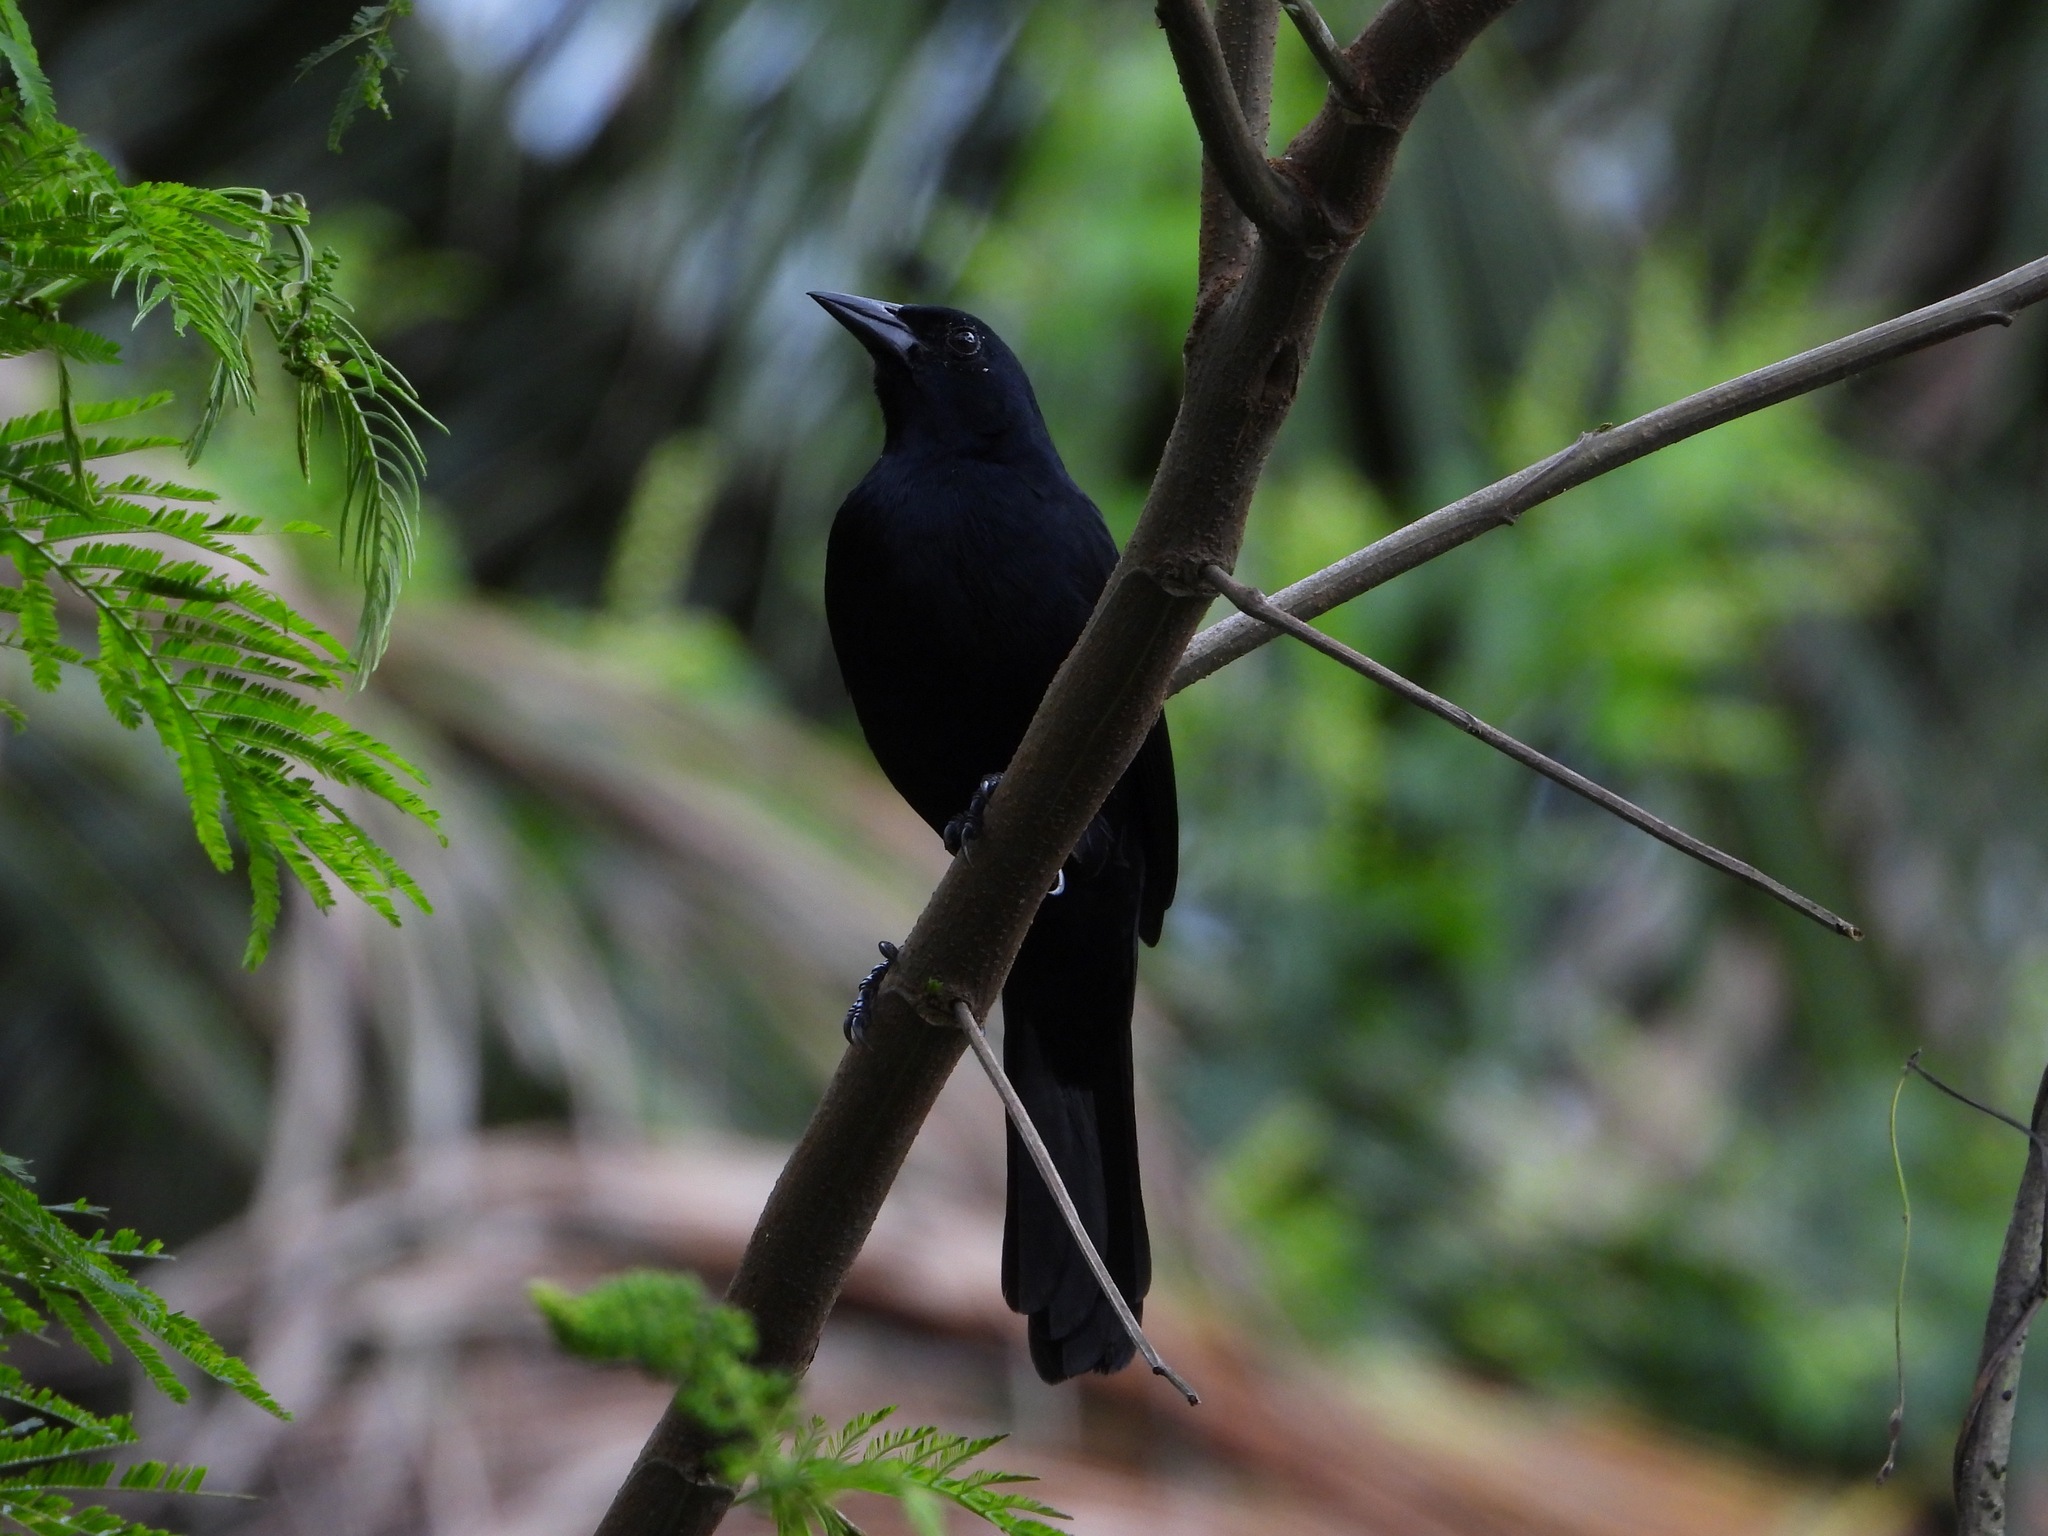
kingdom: Animalia
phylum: Chordata
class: Aves
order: Passeriformes
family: Icteridae
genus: Dives
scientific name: Dives dives
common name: Melodious blackbird
